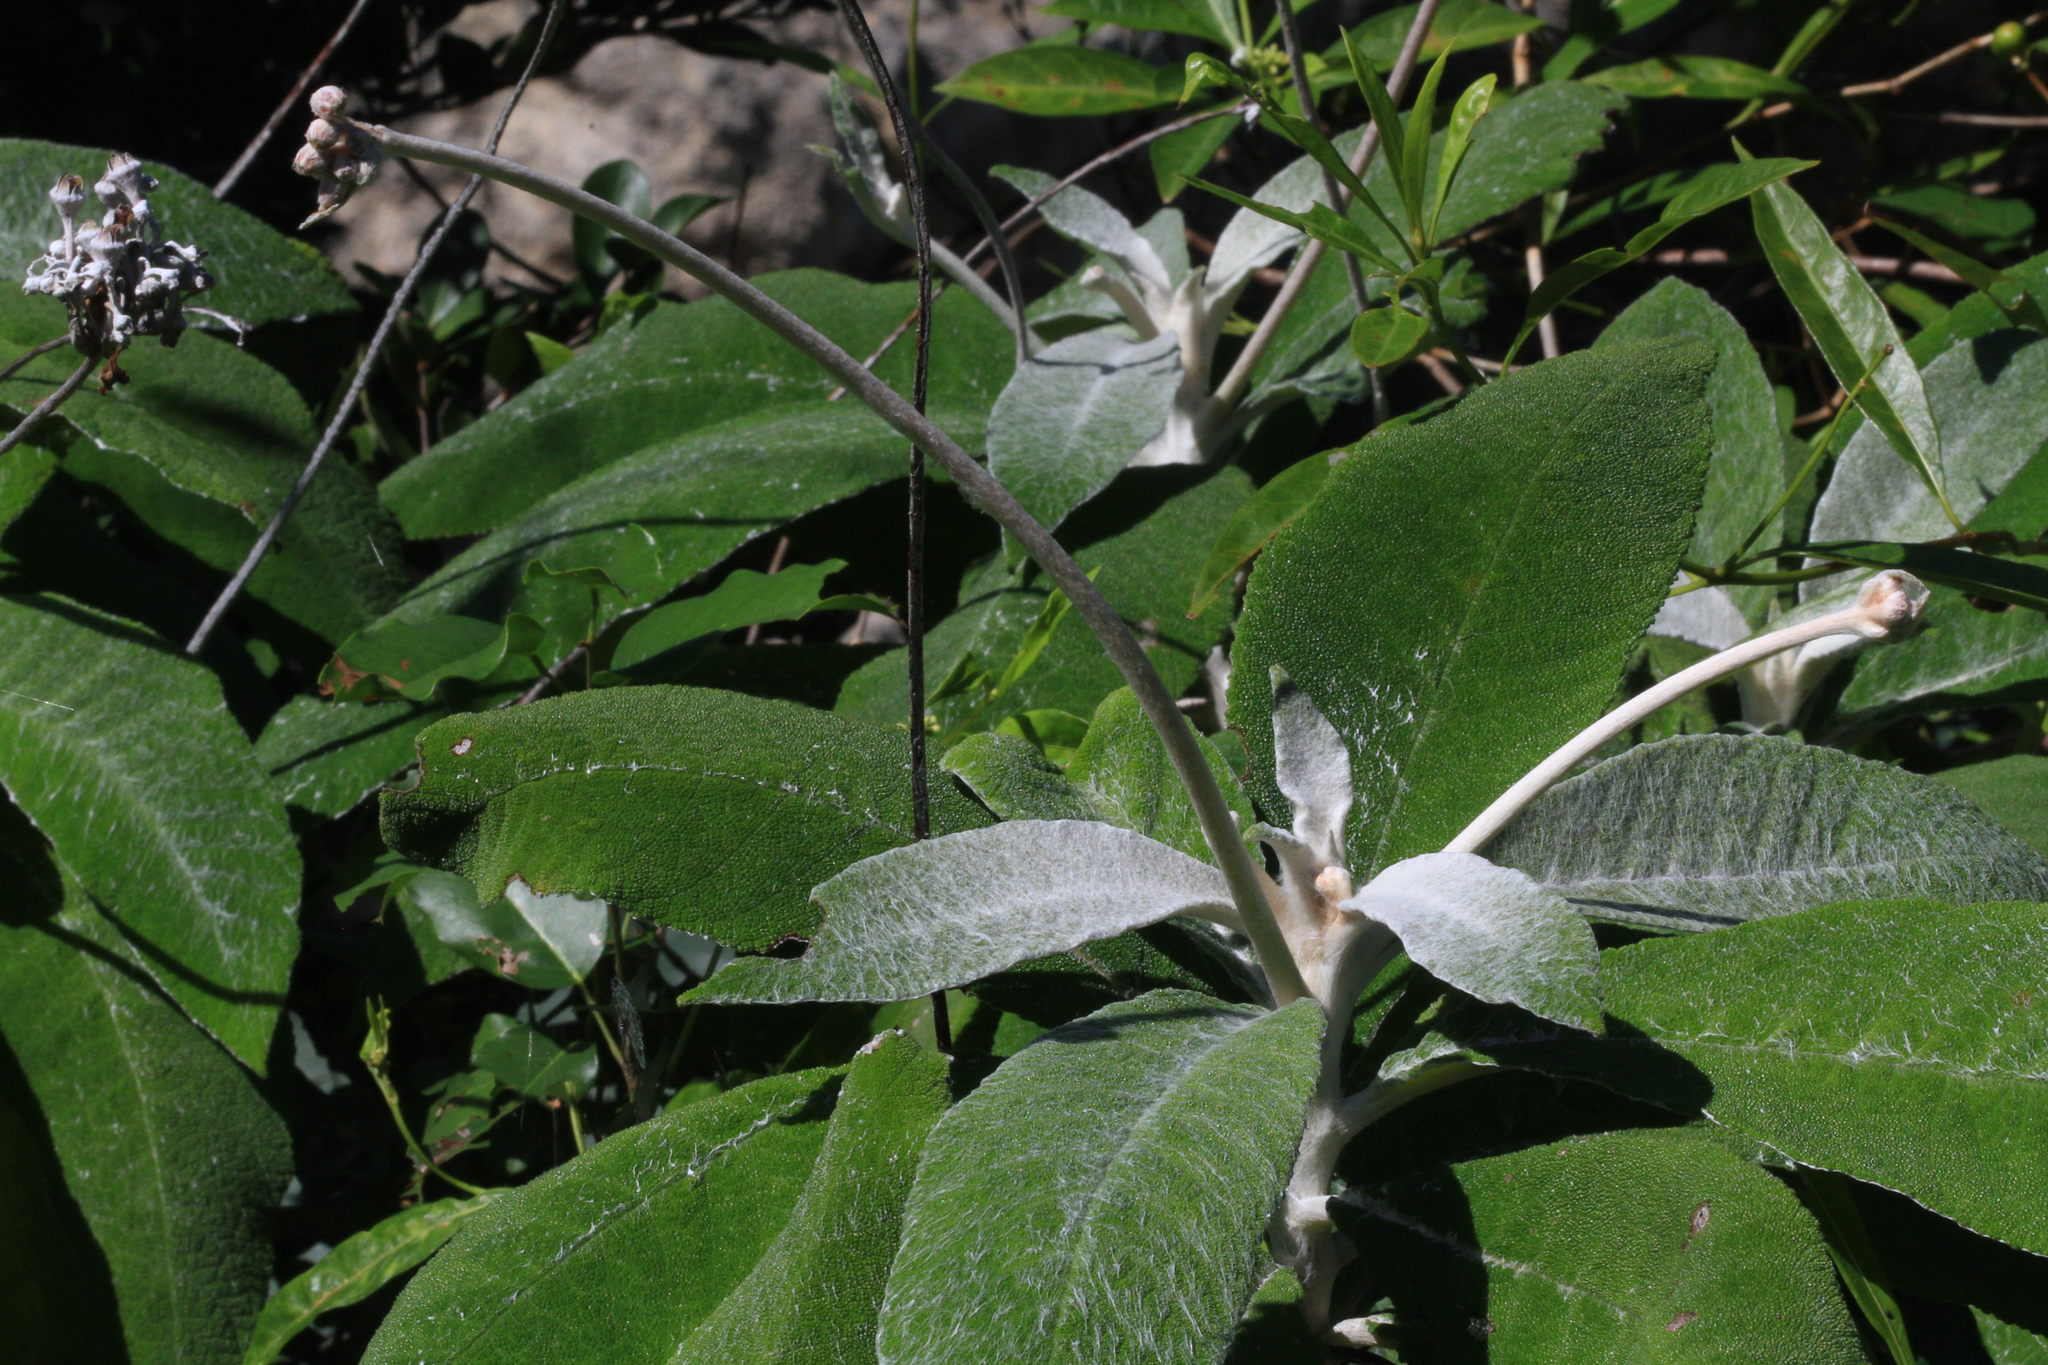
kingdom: Plantae
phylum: Tracheophyta
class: Magnoliopsida
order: Lamiales
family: Gesneriaceae
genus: Rhytidophyllum
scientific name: Rhytidophyllum leucomallon
